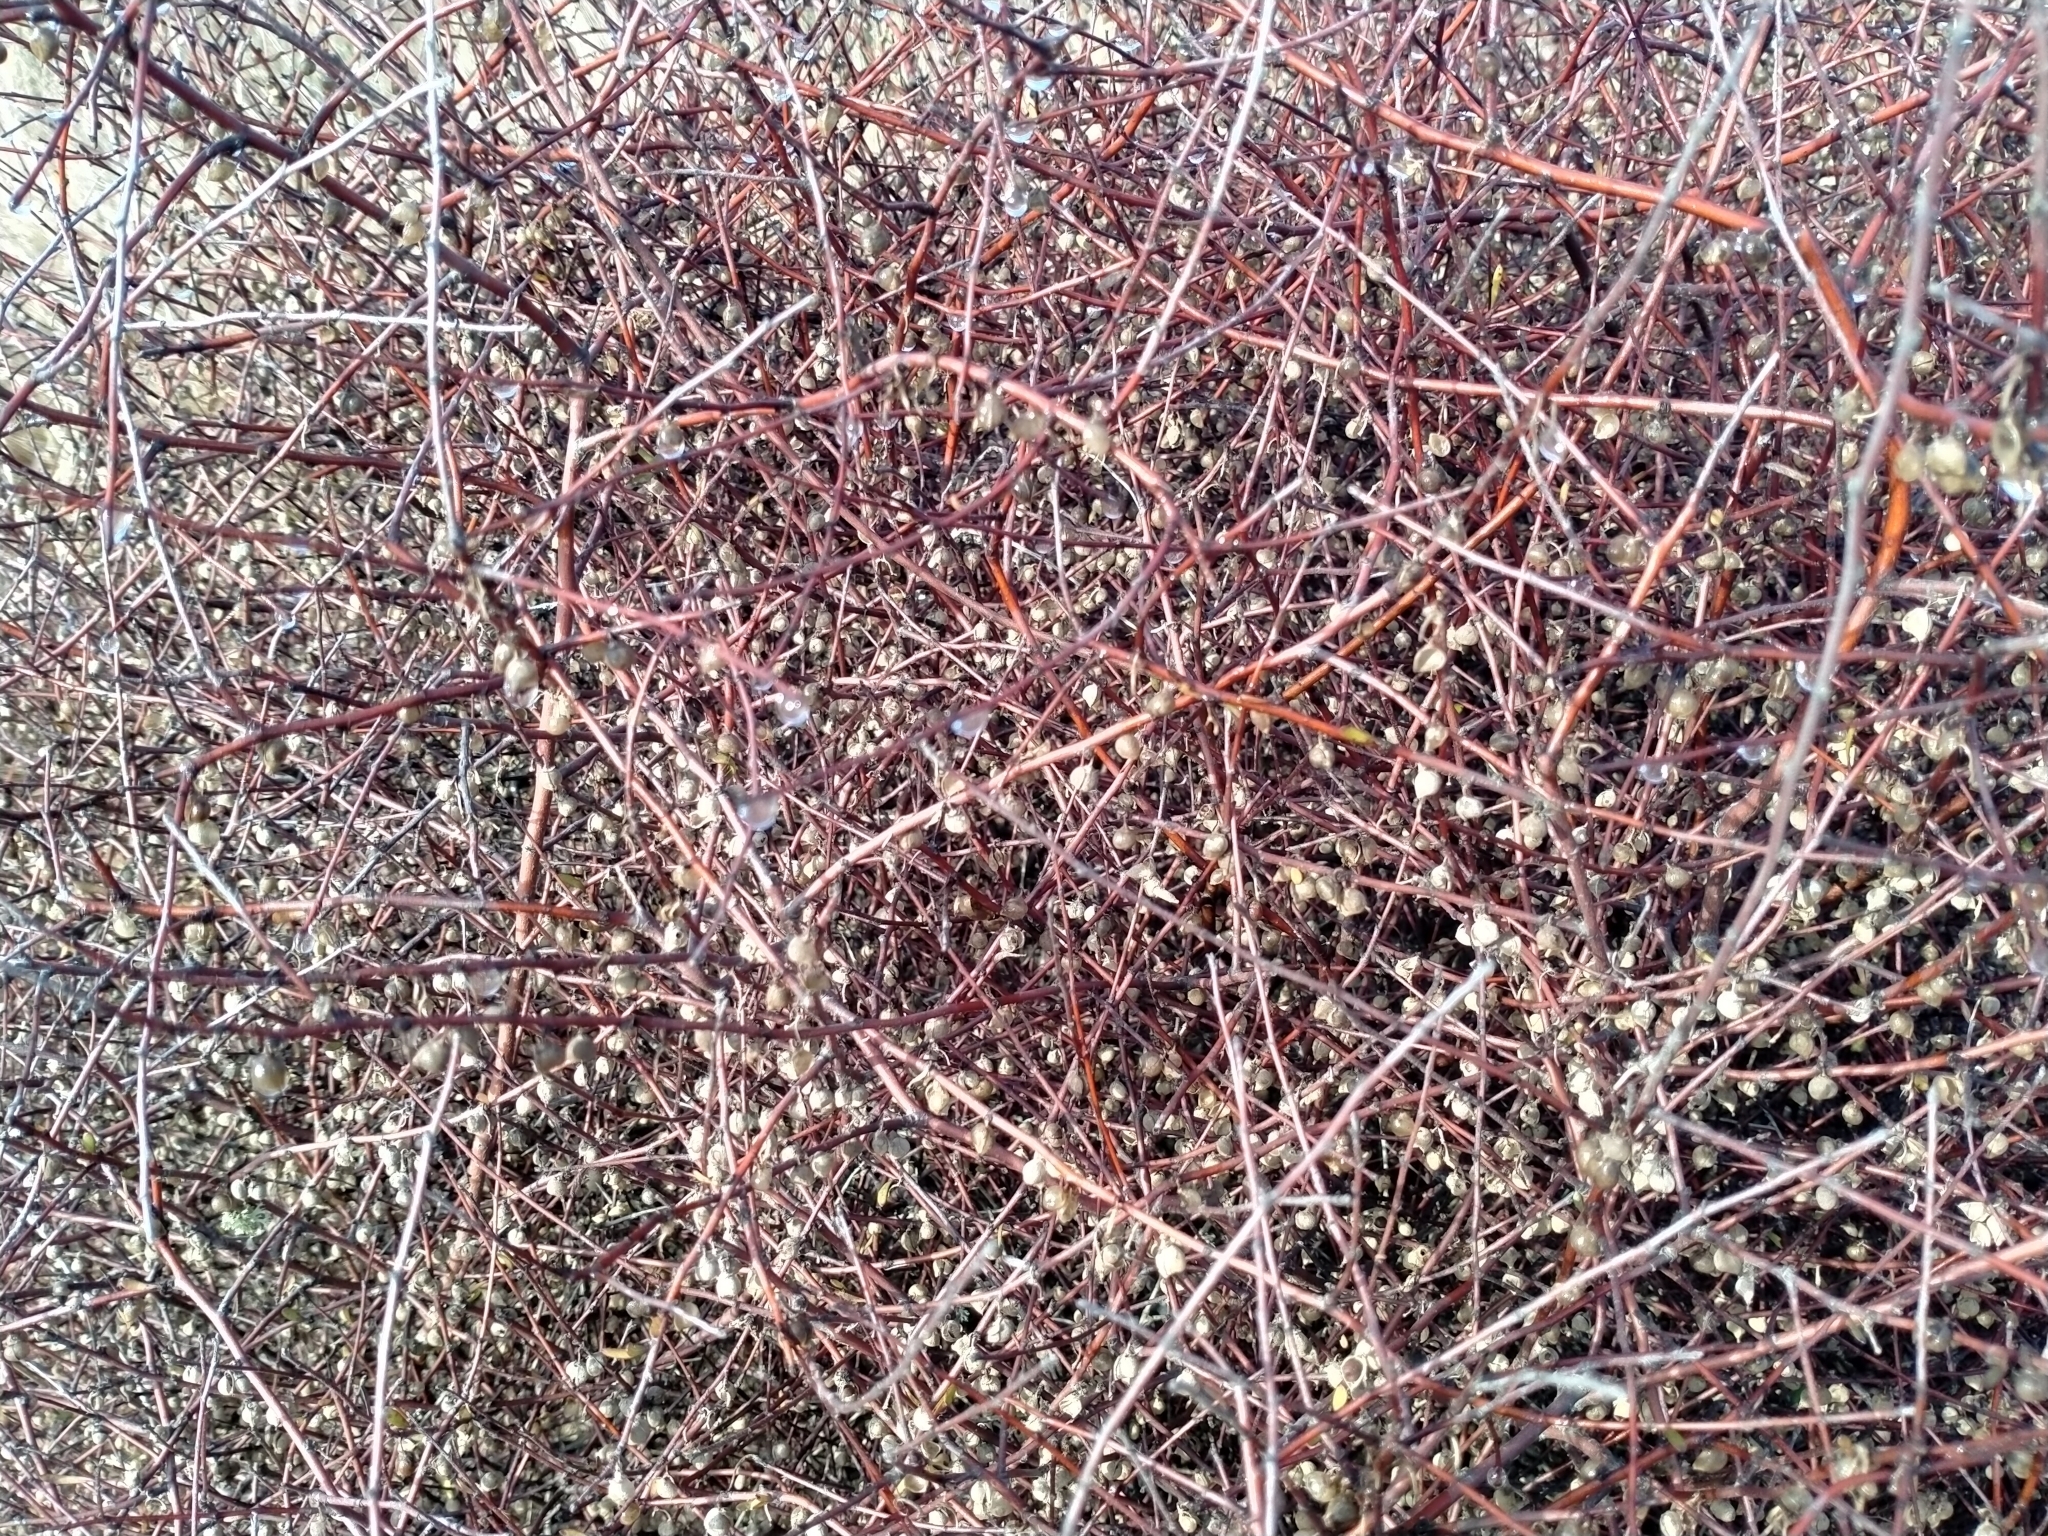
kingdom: Plantae
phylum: Tracheophyta
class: Magnoliopsida
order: Malvales
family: Malvaceae
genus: Plagianthus
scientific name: Plagianthus divaricatus
